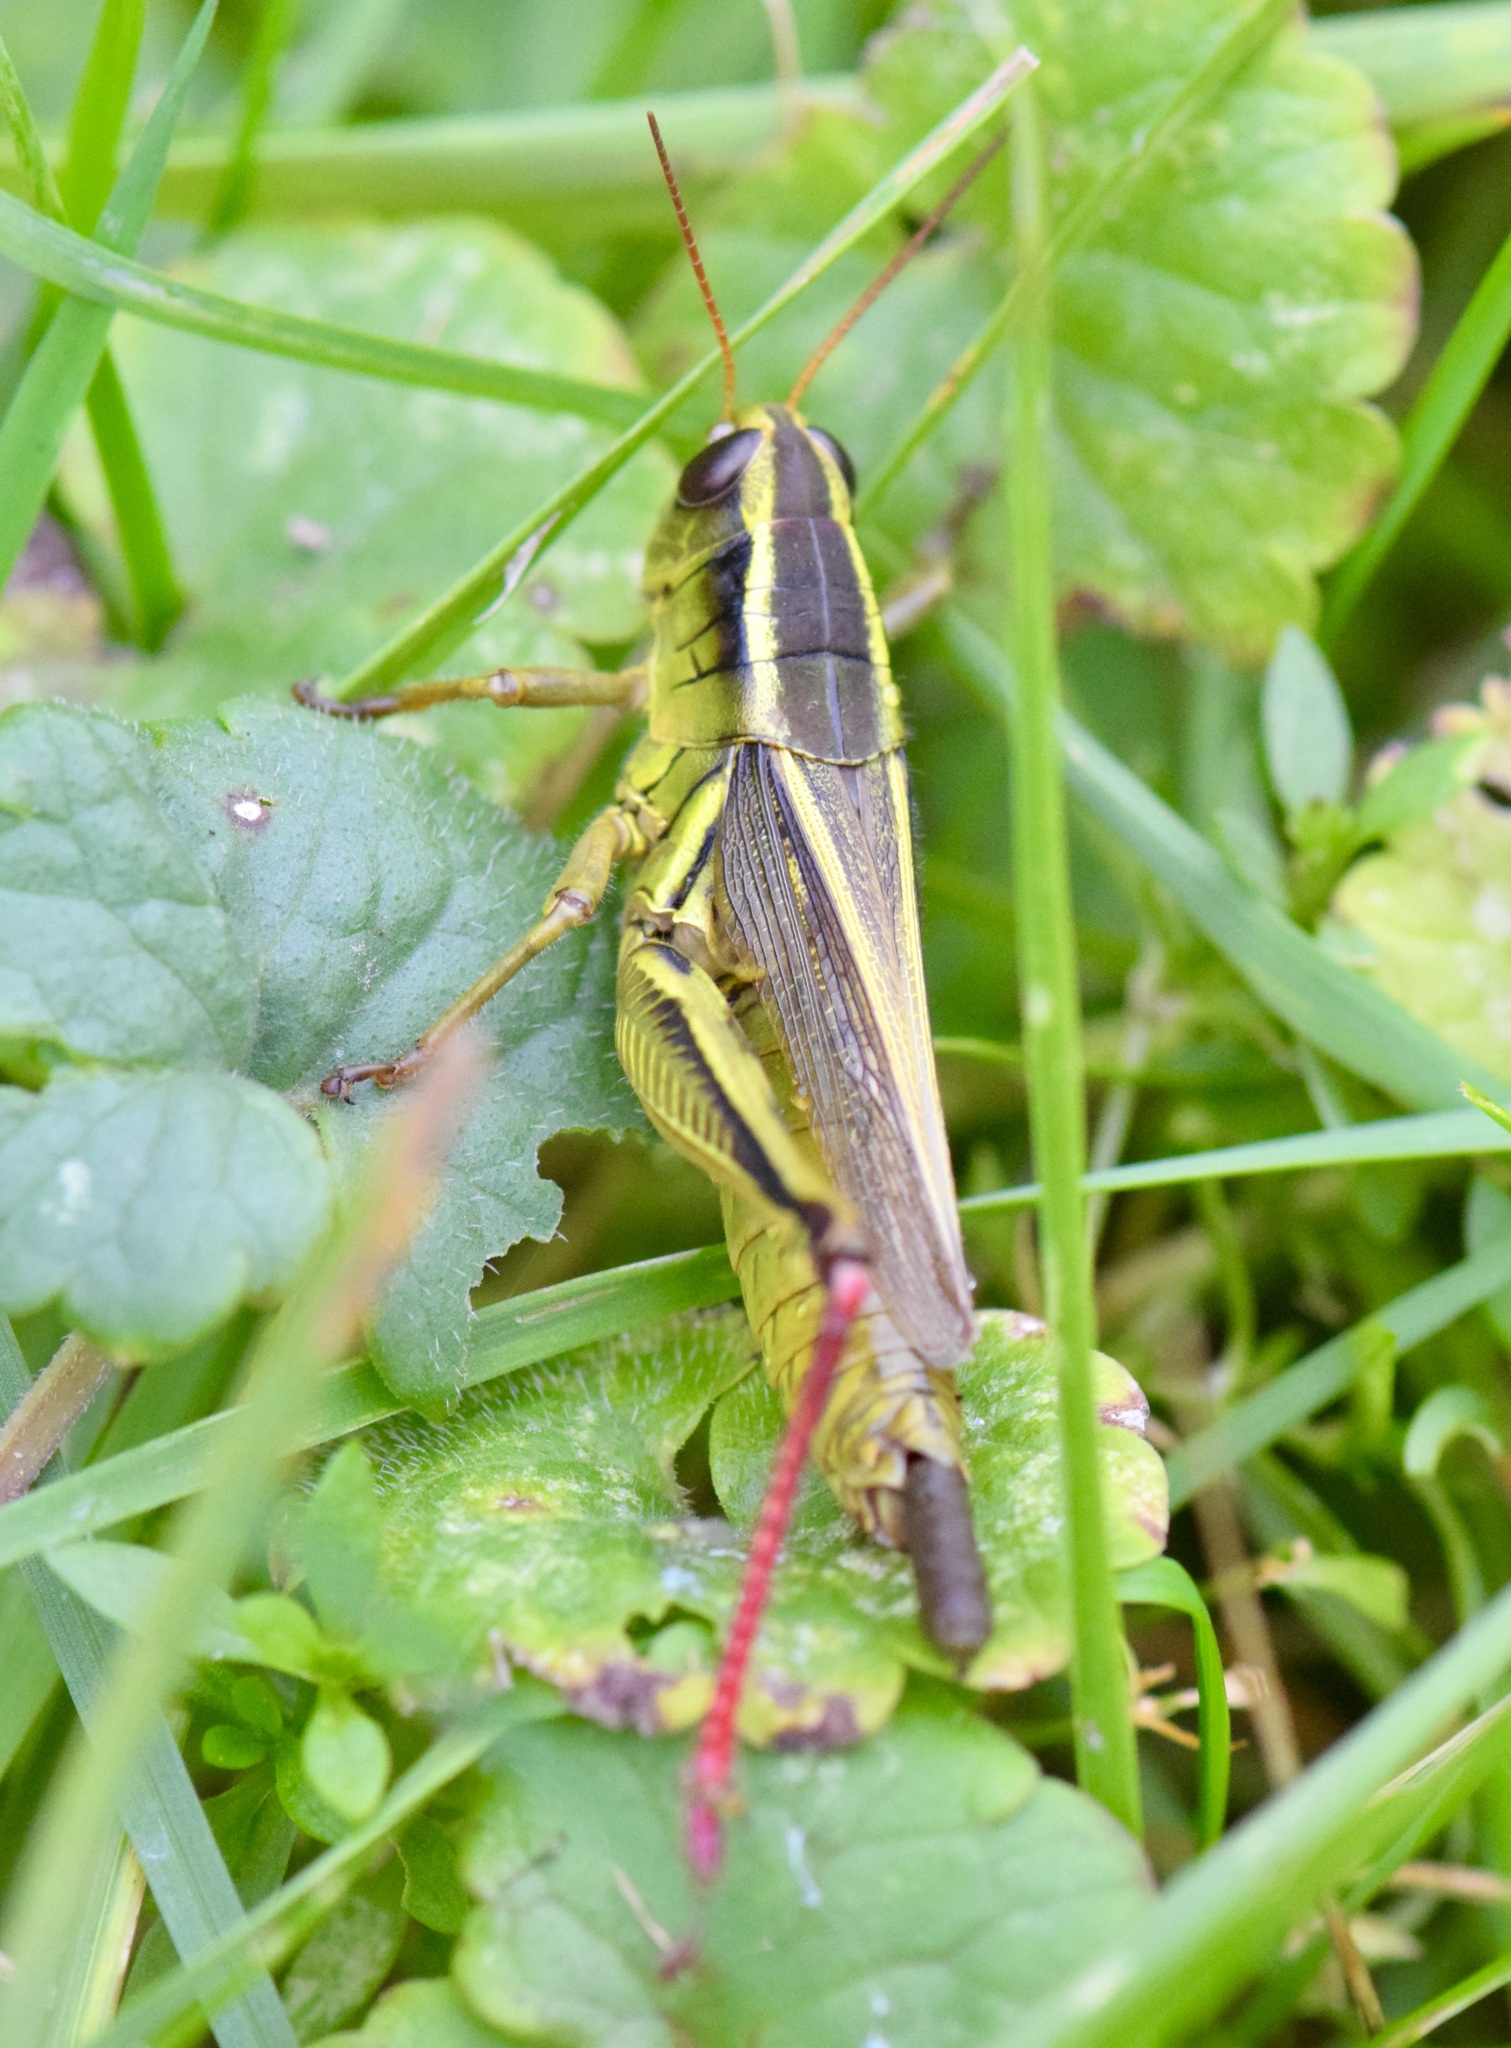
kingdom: Animalia
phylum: Arthropoda
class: Insecta
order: Orthoptera
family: Acrididae
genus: Melanoplus
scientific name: Melanoplus bivittatus
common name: Two-striped grasshopper
